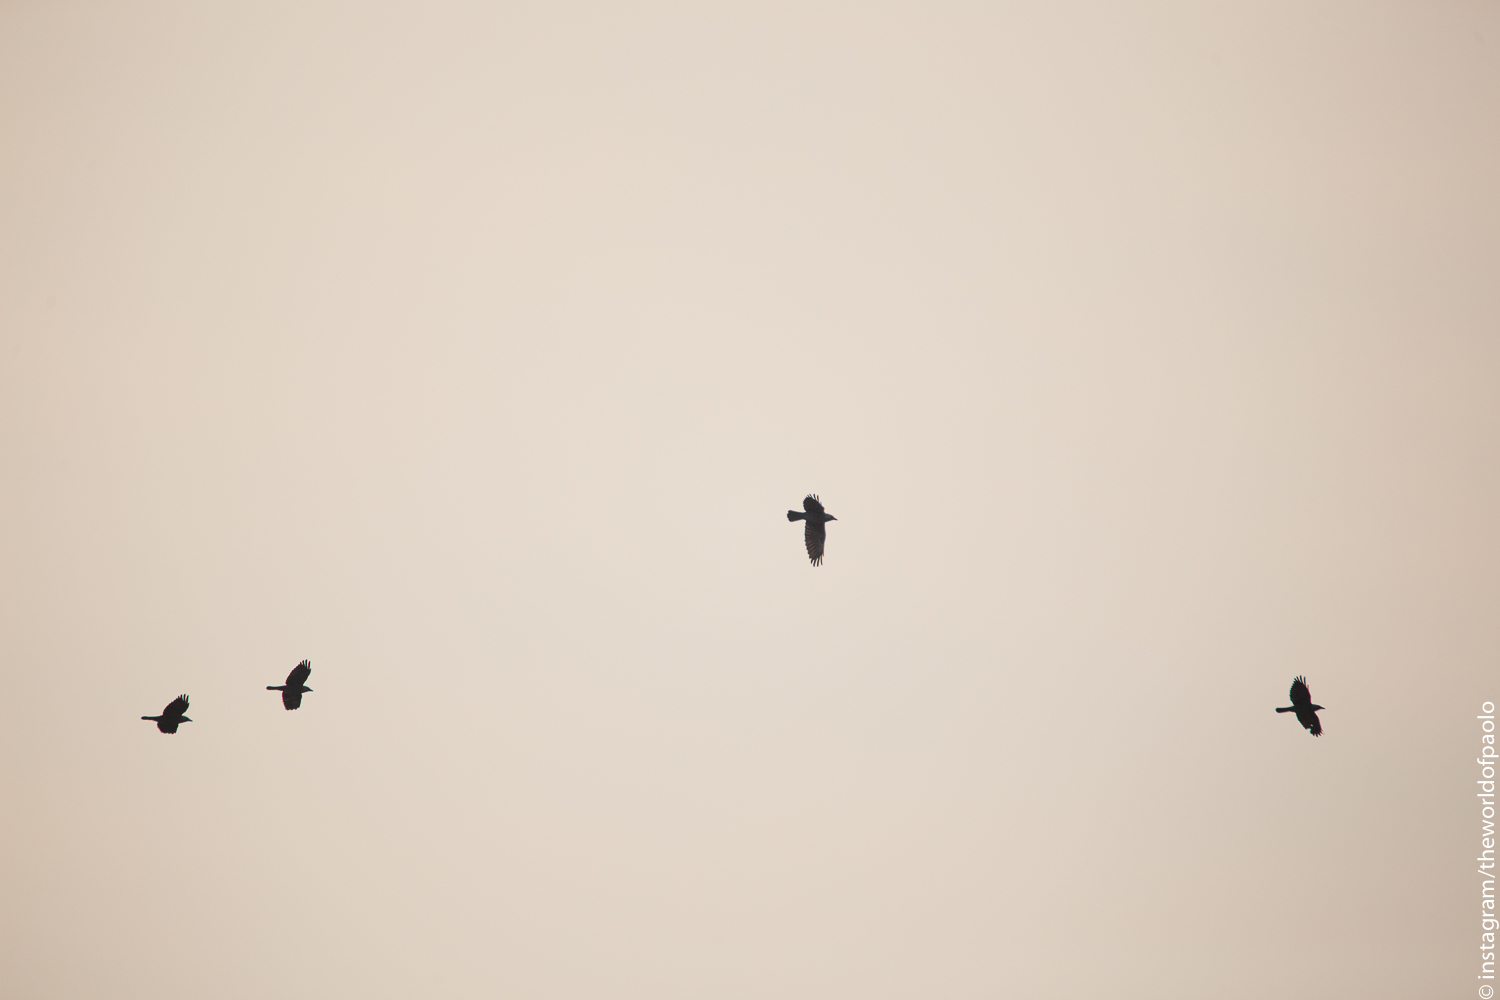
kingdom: Animalia
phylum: Chordata
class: Aves
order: Passeriformes
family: Corvidae
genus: Coloeus
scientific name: Coloeus monedula
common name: Western jackdaw
